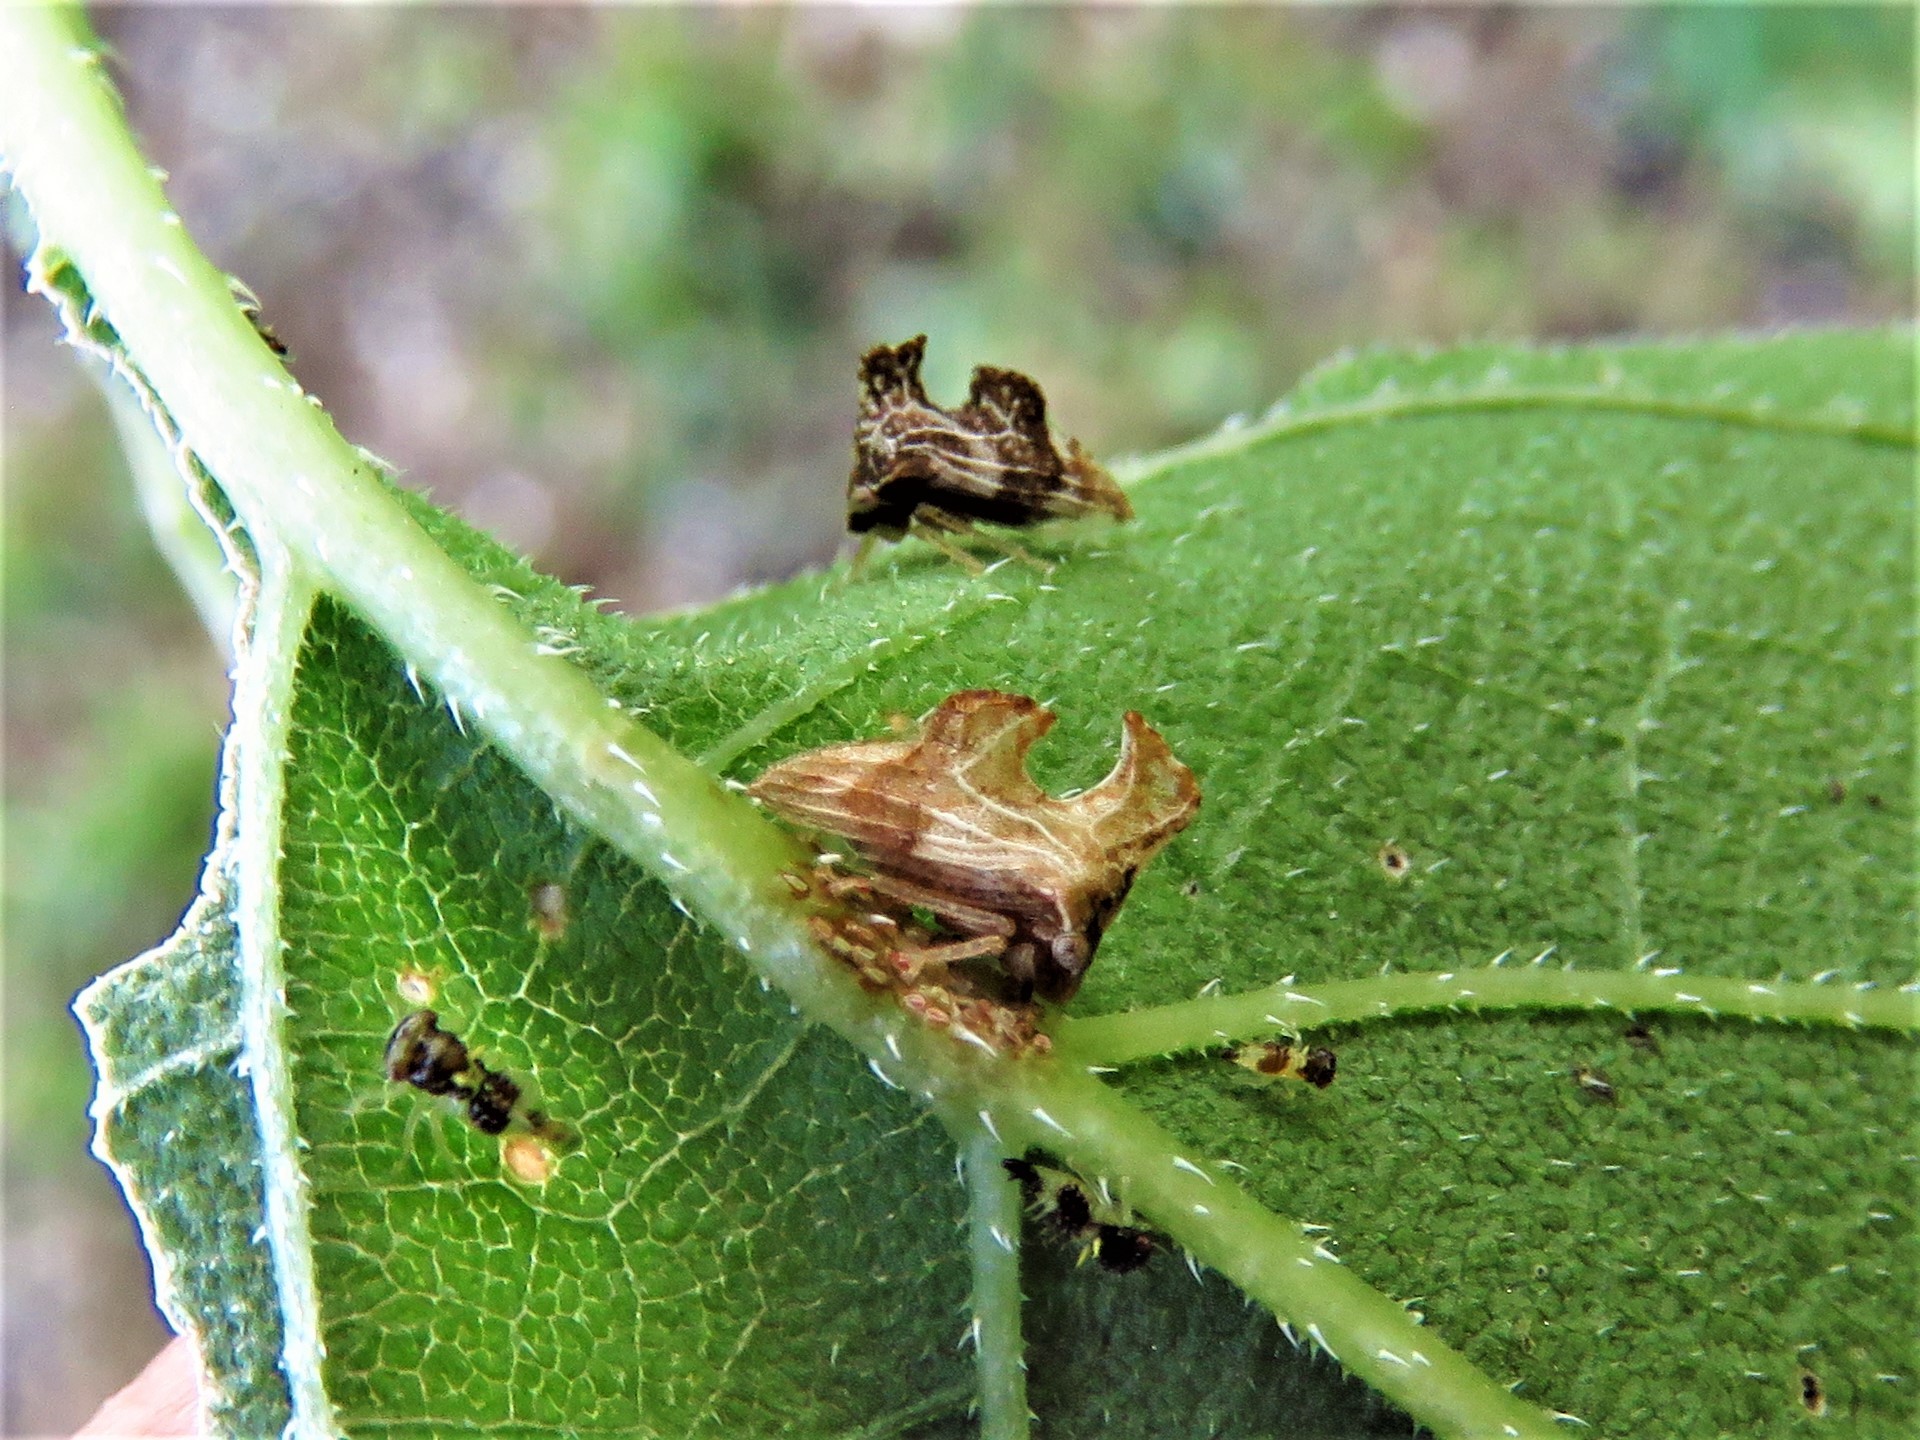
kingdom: Animalia
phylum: Arthropoda
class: Insecta
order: Hemiptera
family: Membracidae
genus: Entylia
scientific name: Entylia carinata
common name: Keeled treehopper
